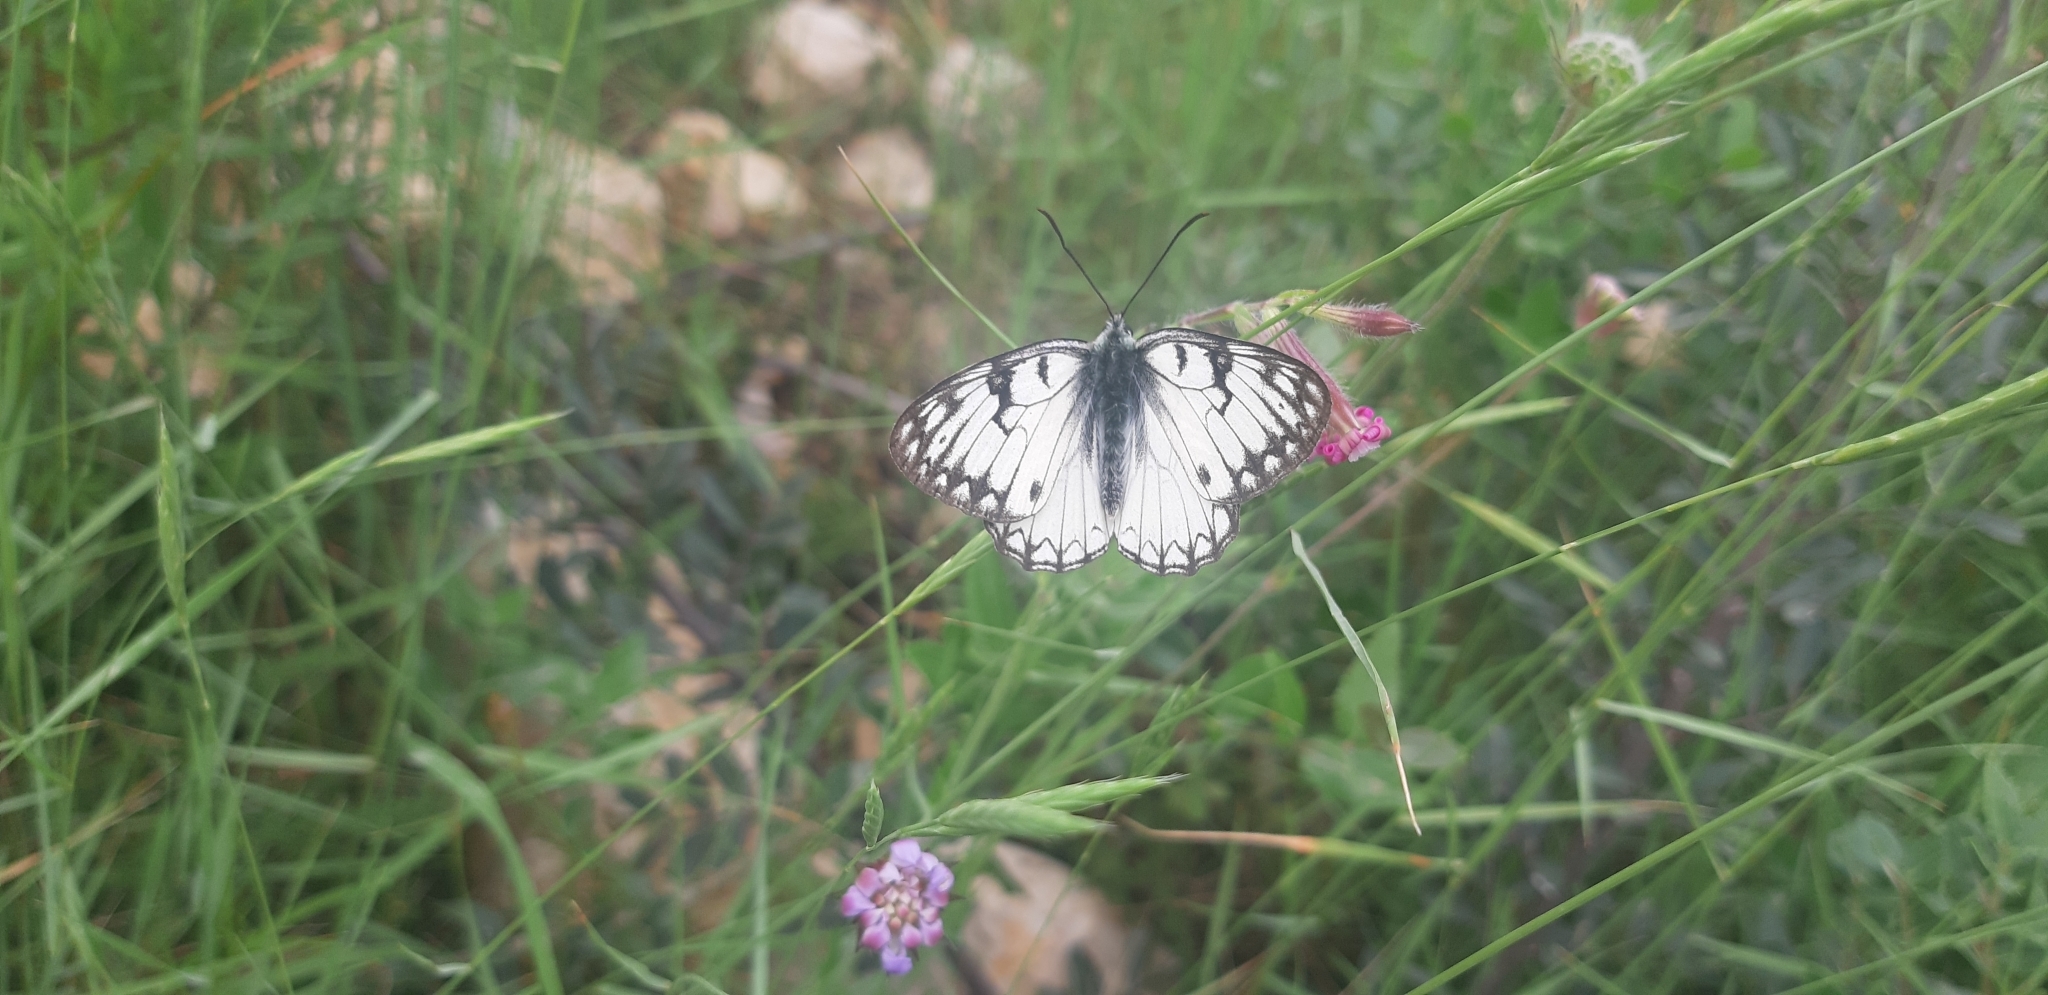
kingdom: Animalia
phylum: Arthropoda
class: Insecta
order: Lepidoptera
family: Nymphalidae
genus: Melanargia
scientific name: Melanargia arge
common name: Italian marbled white
